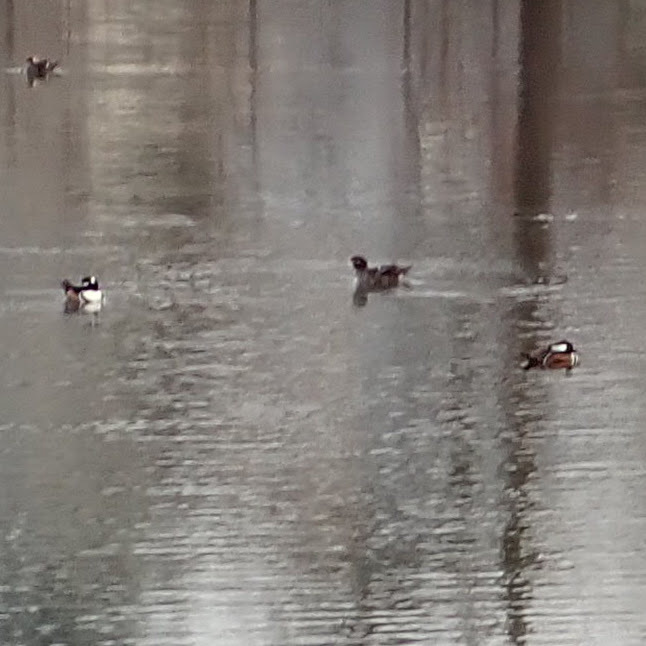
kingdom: Animalia
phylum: Chordata
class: Aves
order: Anseriformes
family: Anatidae
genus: Lophodytes
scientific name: Lophodytes cucullatus
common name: Hooded merganser
